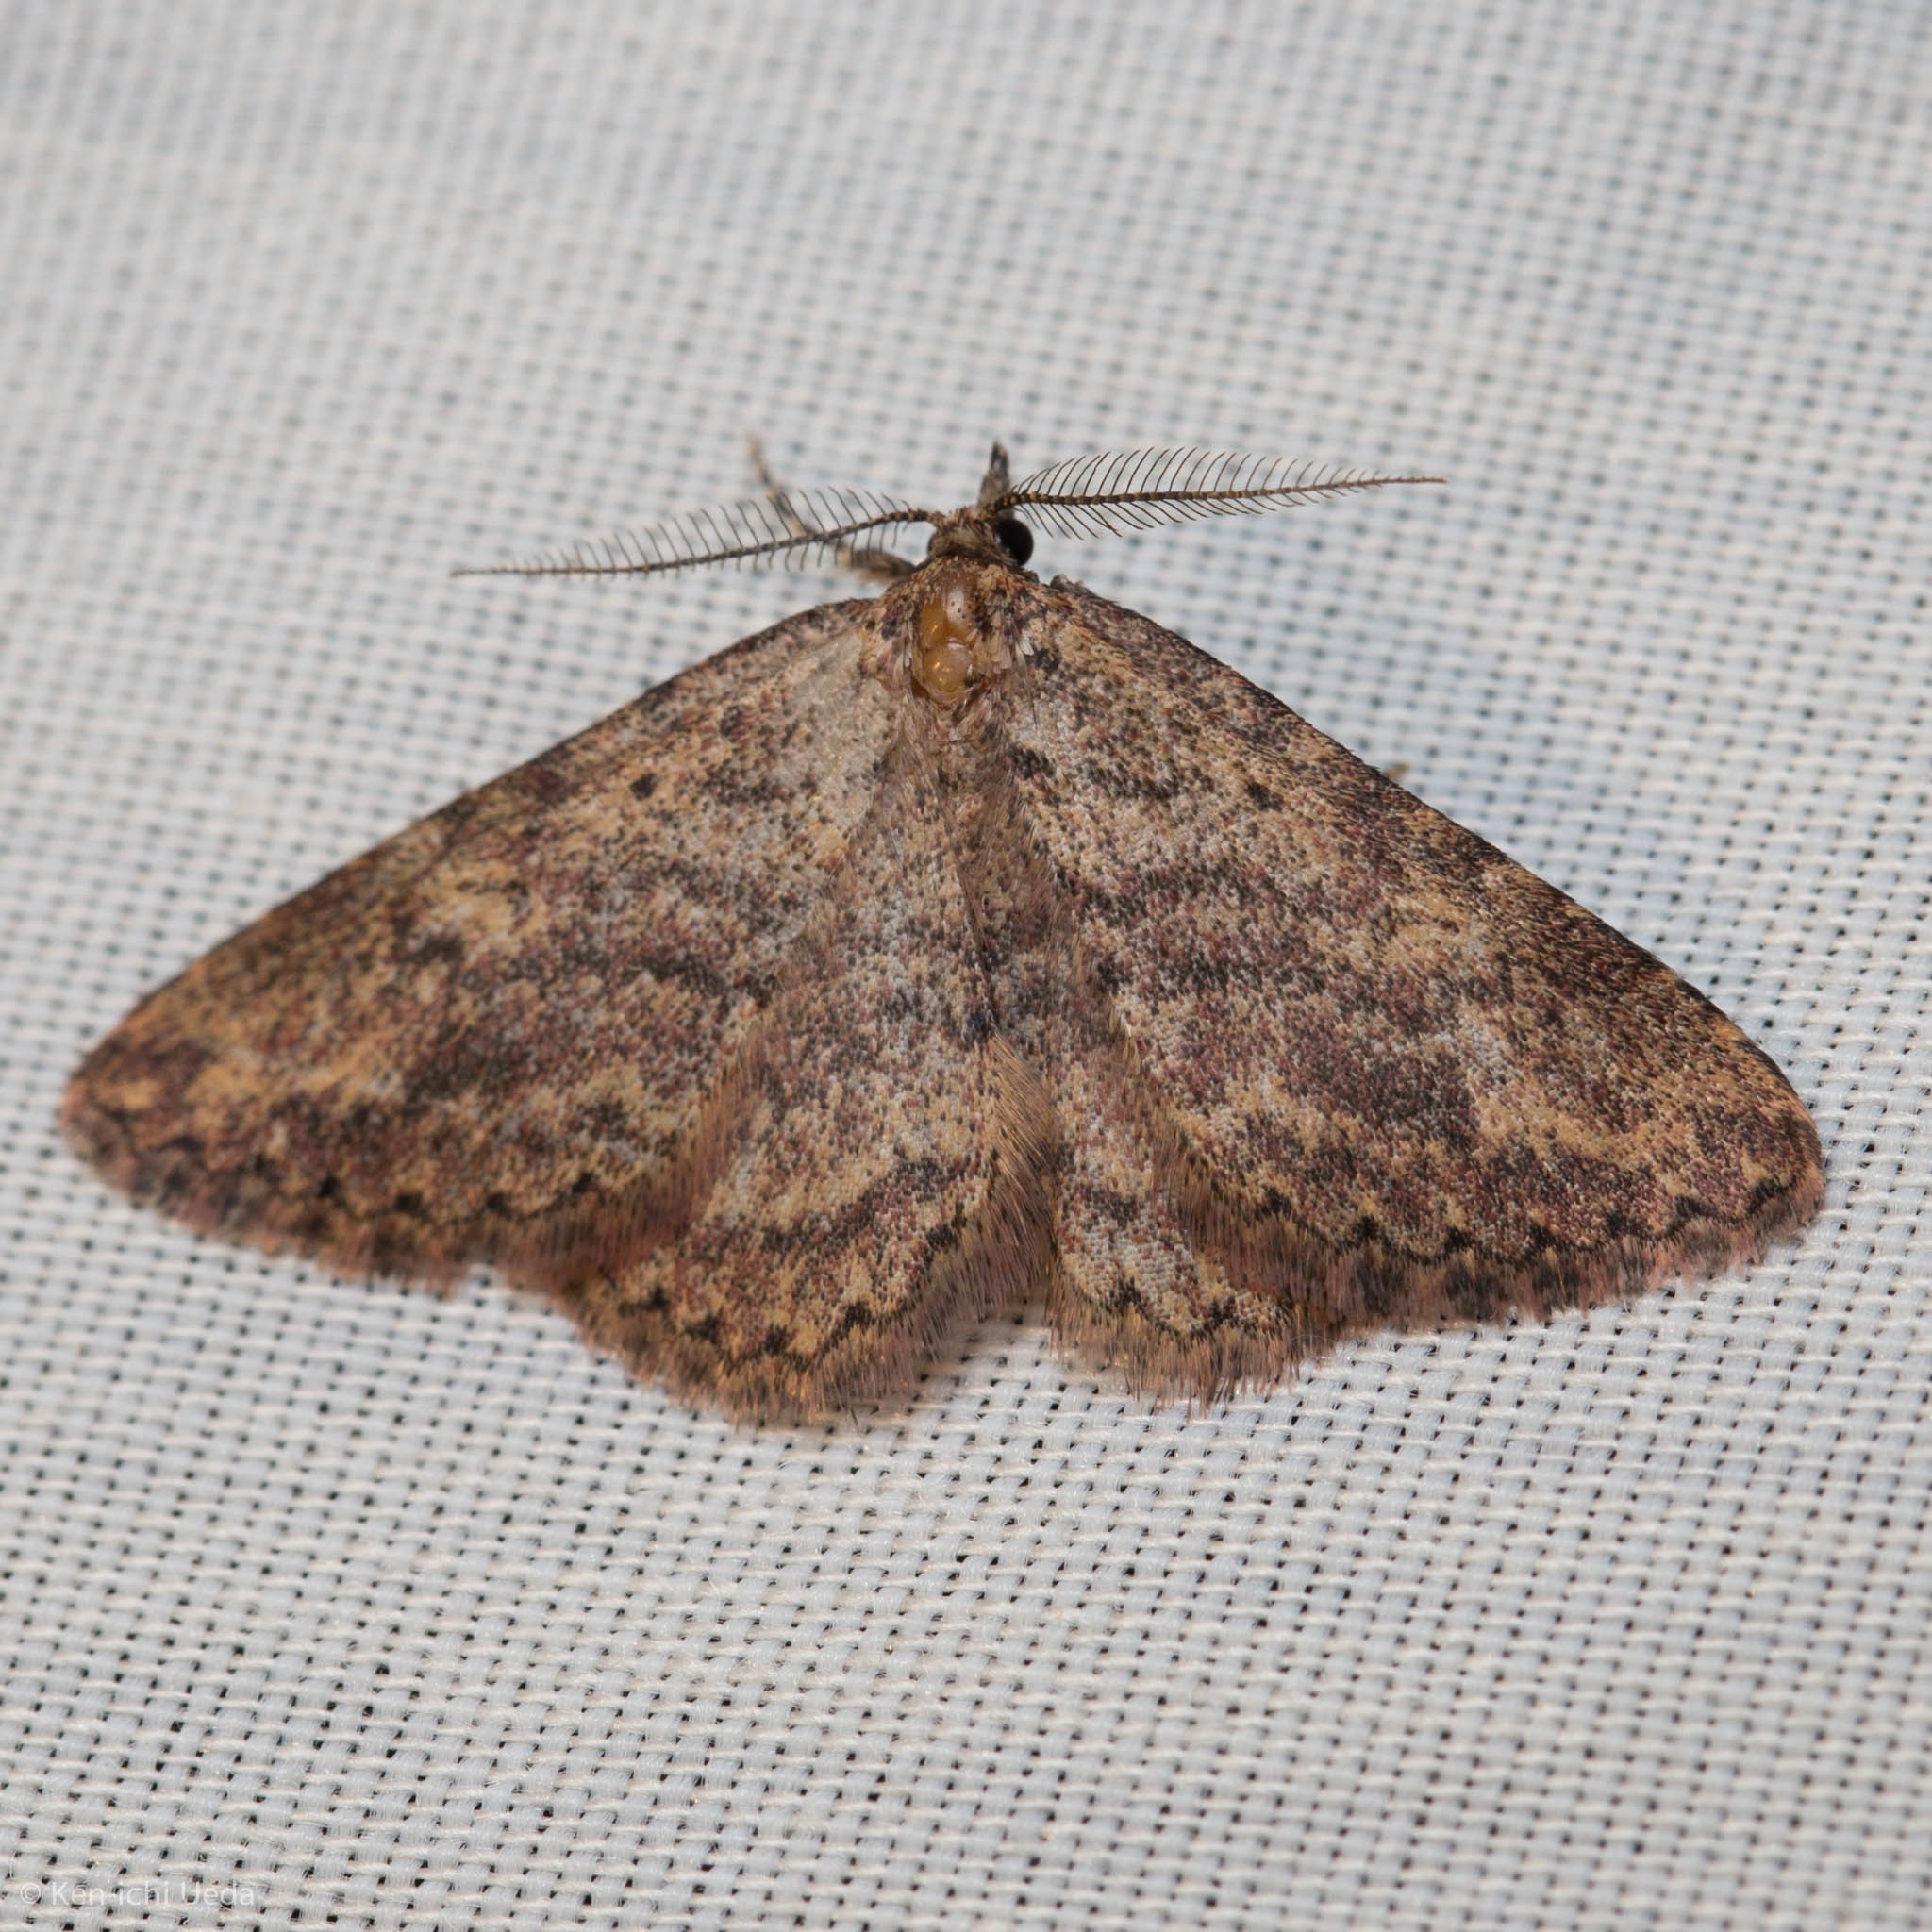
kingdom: Animalia
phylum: Arthropoda
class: Insecta
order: Lepidoptera
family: Erebidae
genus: Mycterophora
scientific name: Mycterophora rubricans
